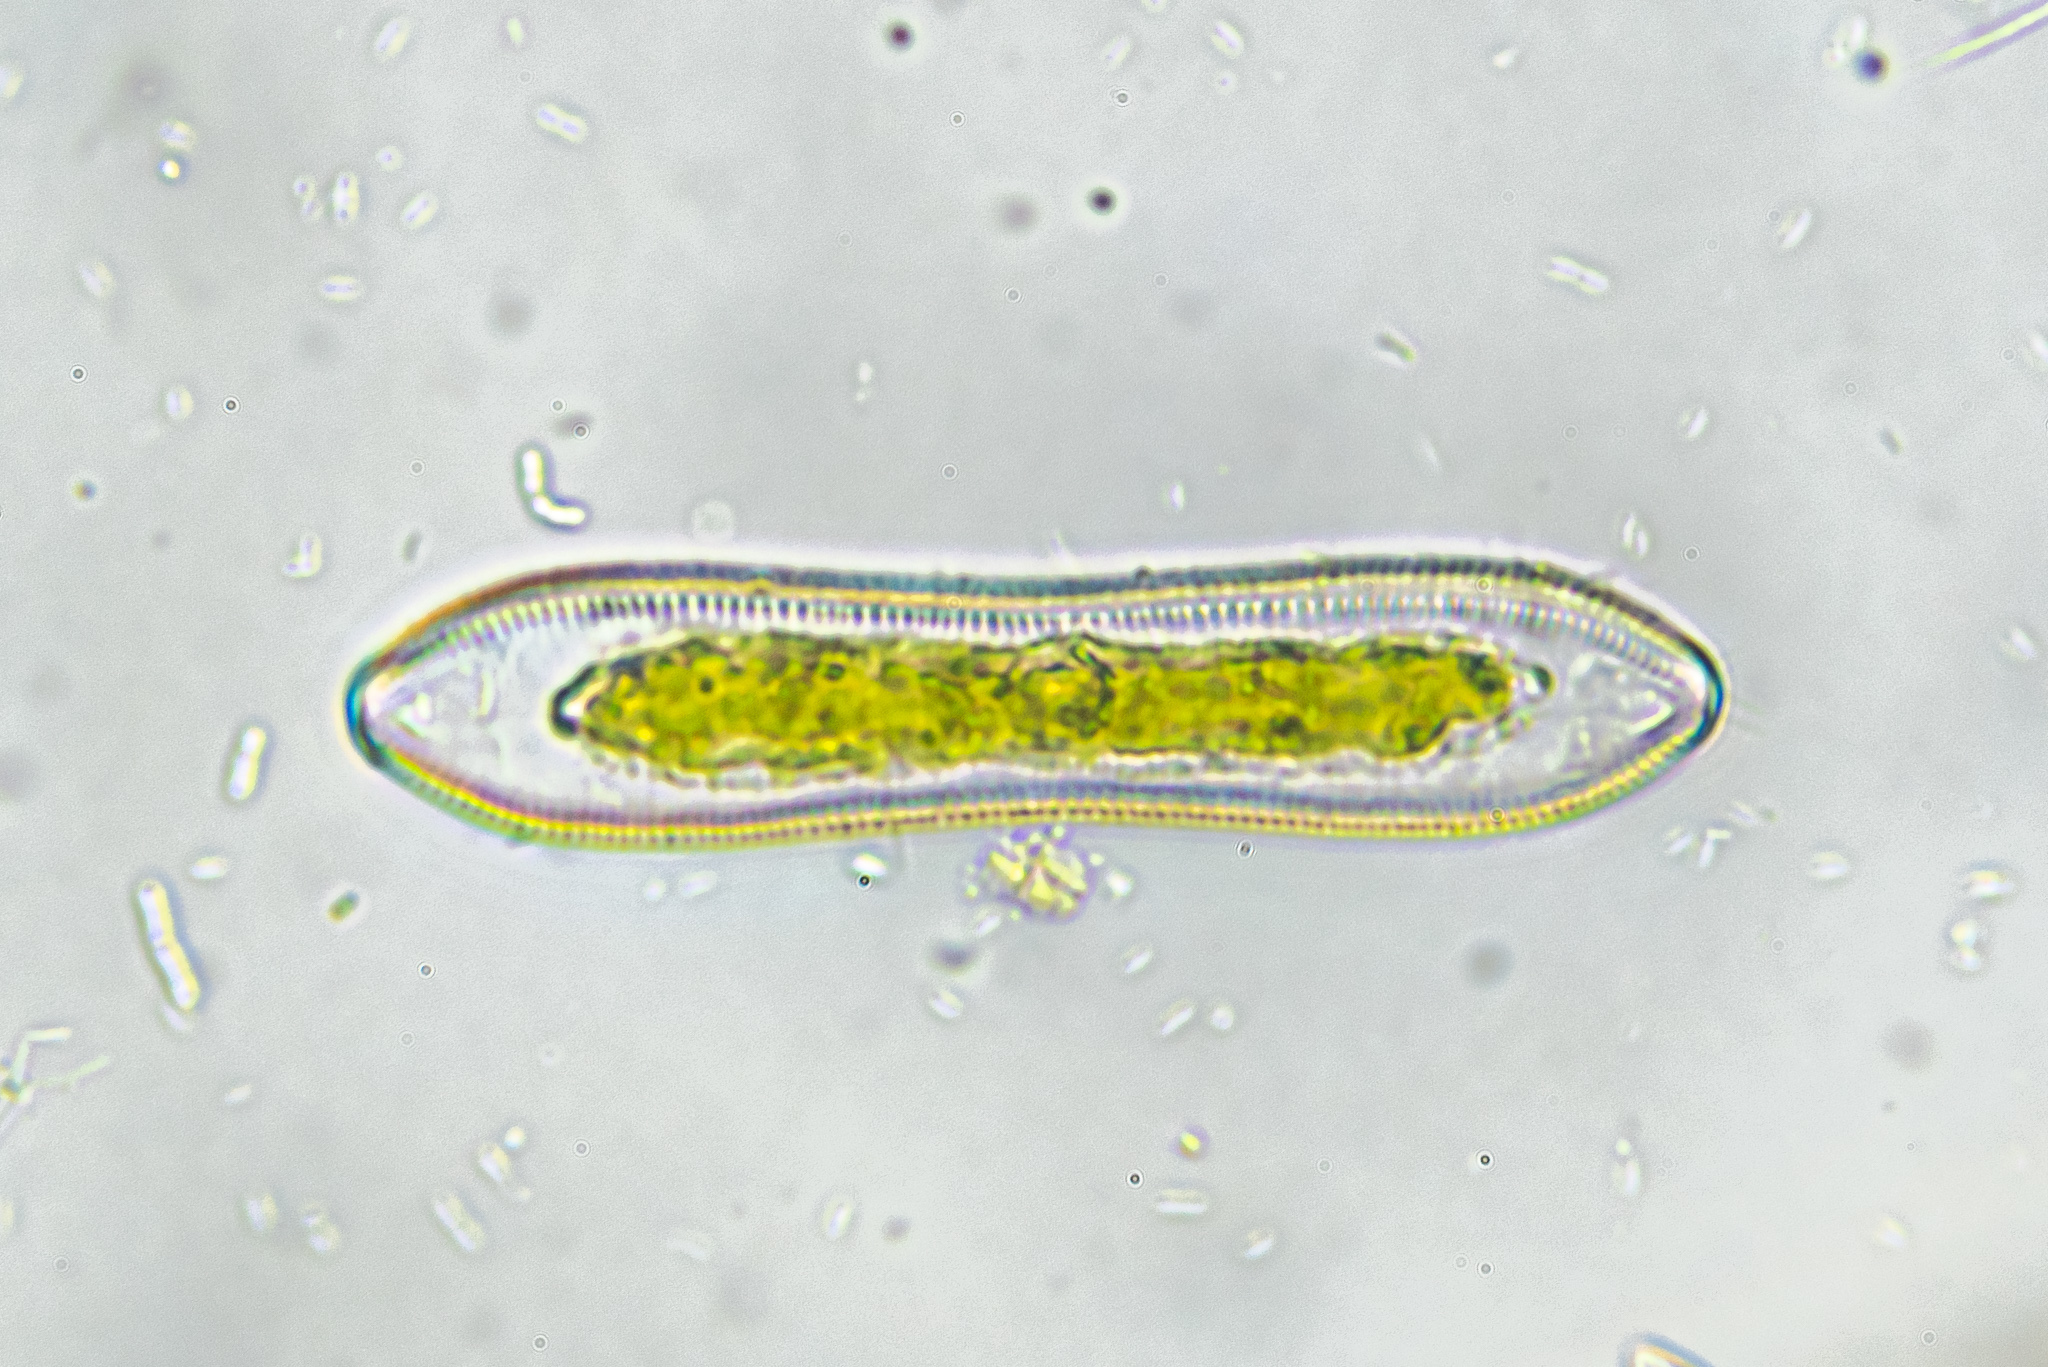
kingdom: Chromista
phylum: Ochrophyta
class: Bacillariophyceae
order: Surirellales
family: Surirellaceae
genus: Surirella
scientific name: Surirella librile
